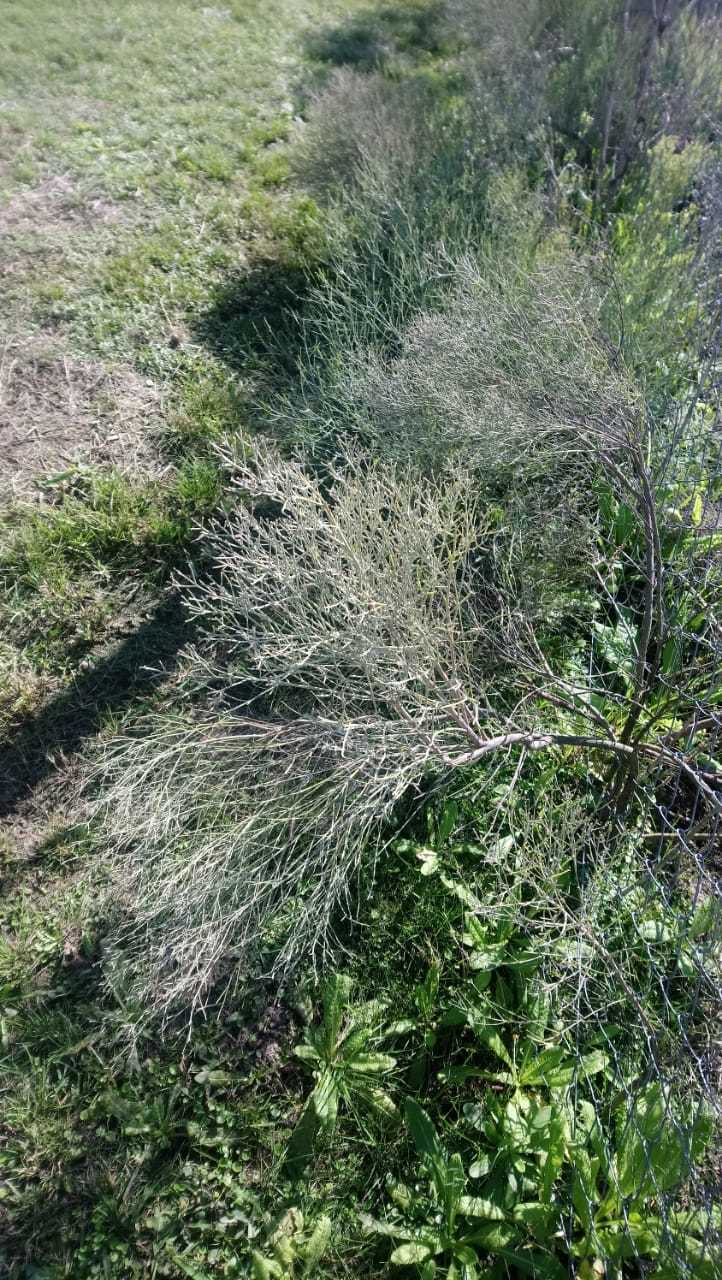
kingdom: Plantae
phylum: Tracheophyta
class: Magnoliopsida
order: Asterales
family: Asteraceae
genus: Baccharis
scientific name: Baccharis notosergila
